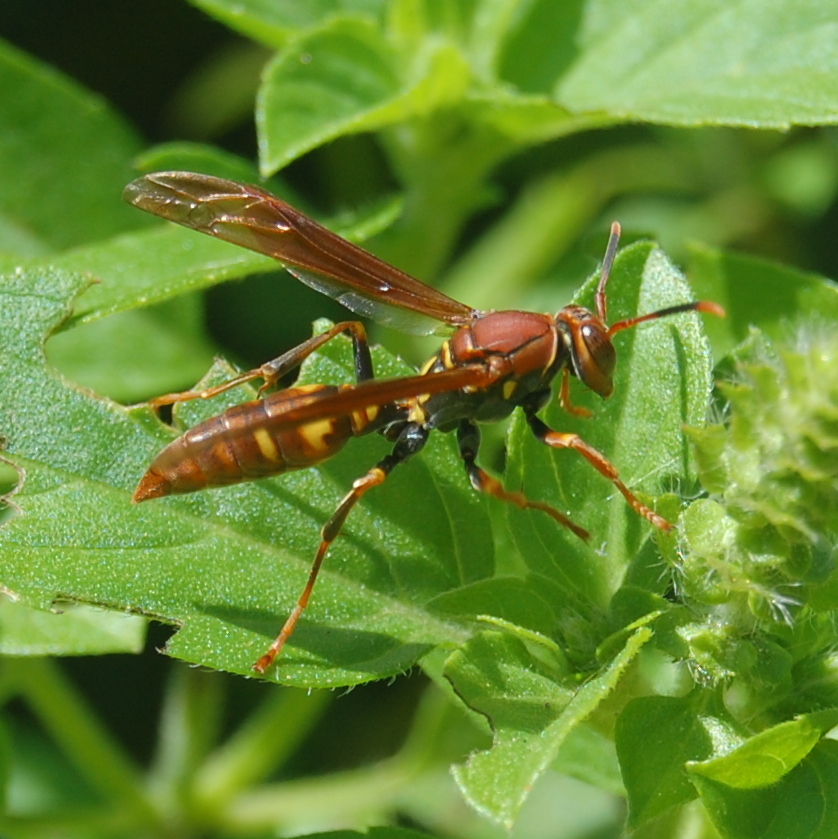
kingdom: Animalia
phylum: Arthropoda
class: Insecta
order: Hymenoptera
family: Eumenidae
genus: Polistes
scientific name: Polistes versicolor
